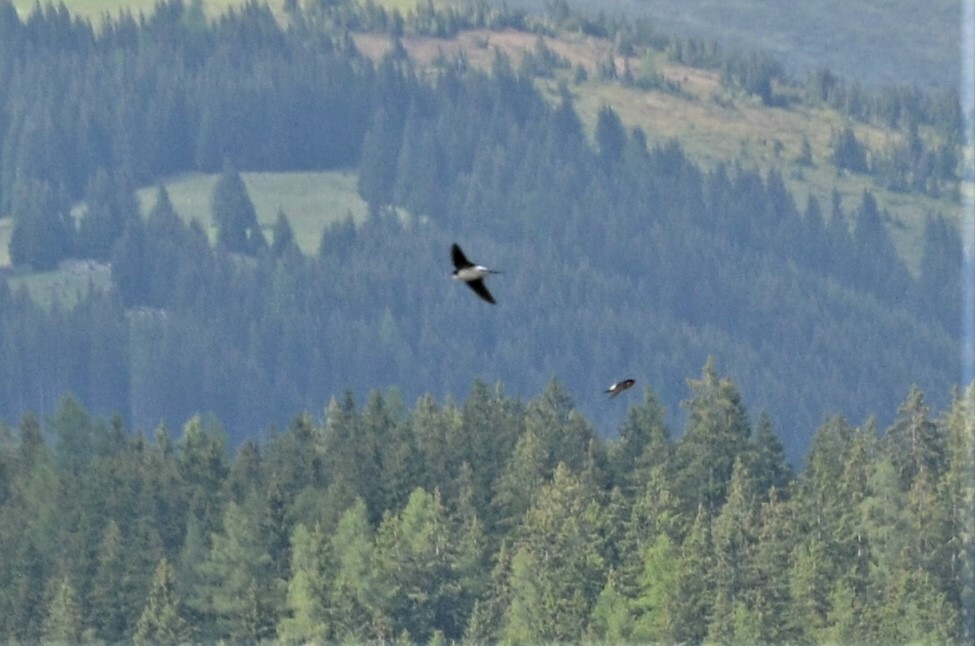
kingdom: Animalia
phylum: Chordata
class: Aves
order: Passeriformes
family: Hirundinidae
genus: Delichon
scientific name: Delichon urbicum
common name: Common house martin
